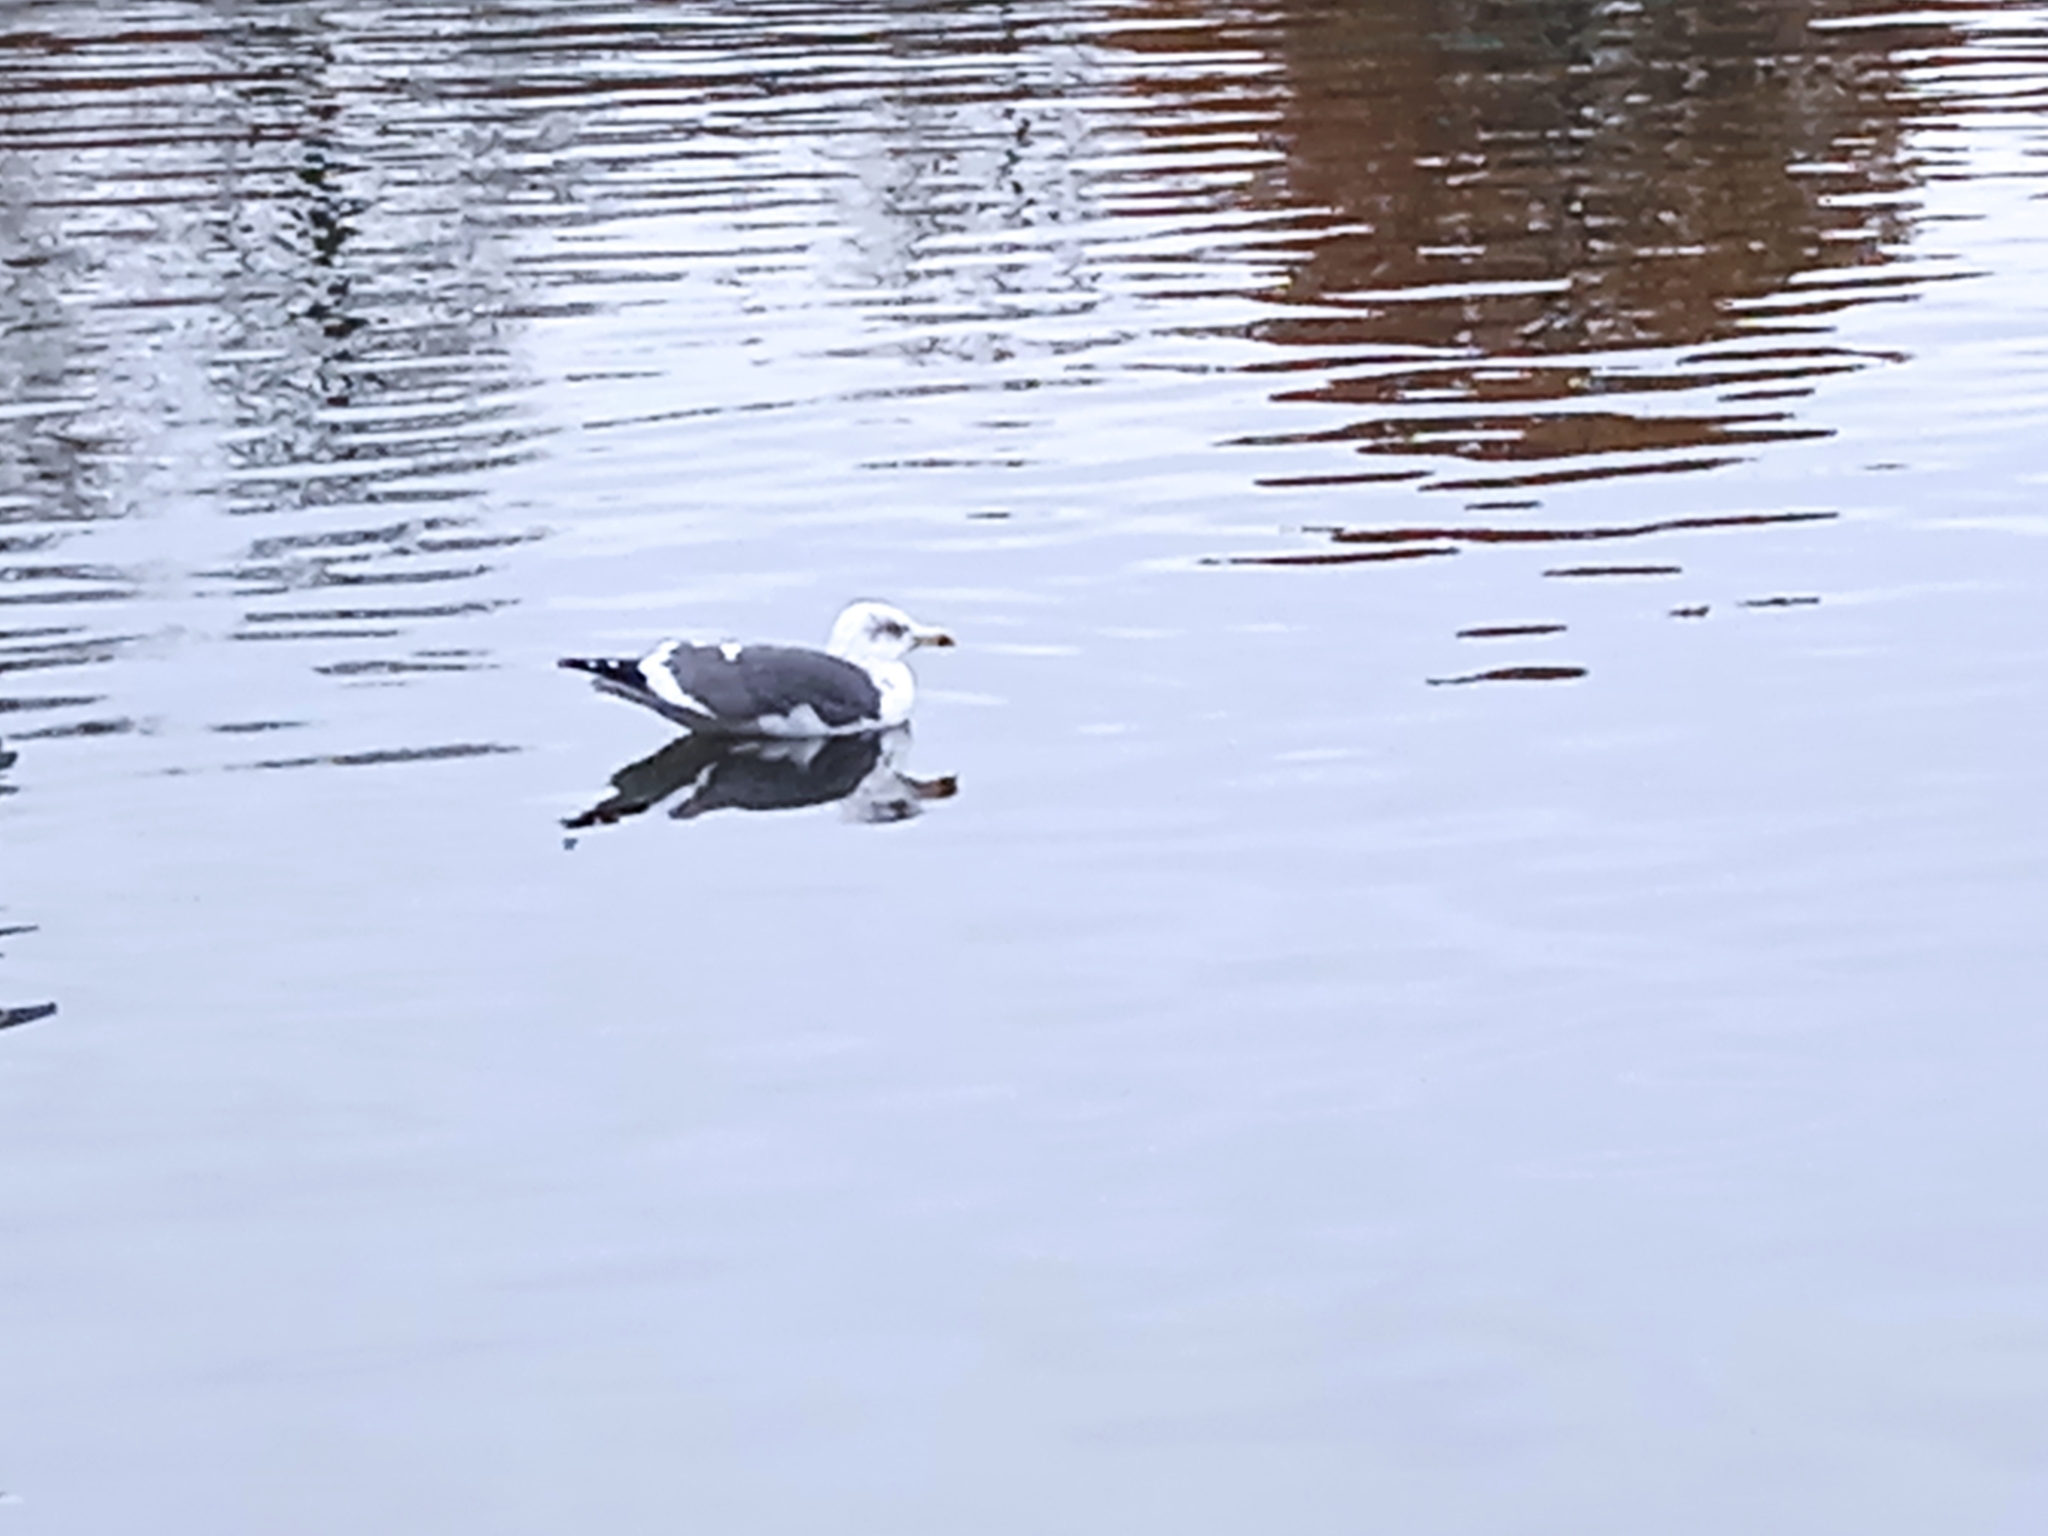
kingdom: Animalia
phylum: Chordata
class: Aves
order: Charadriiformes
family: Laridae
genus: Larus
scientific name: Larus fuscus
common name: Lesser black-backed gull
